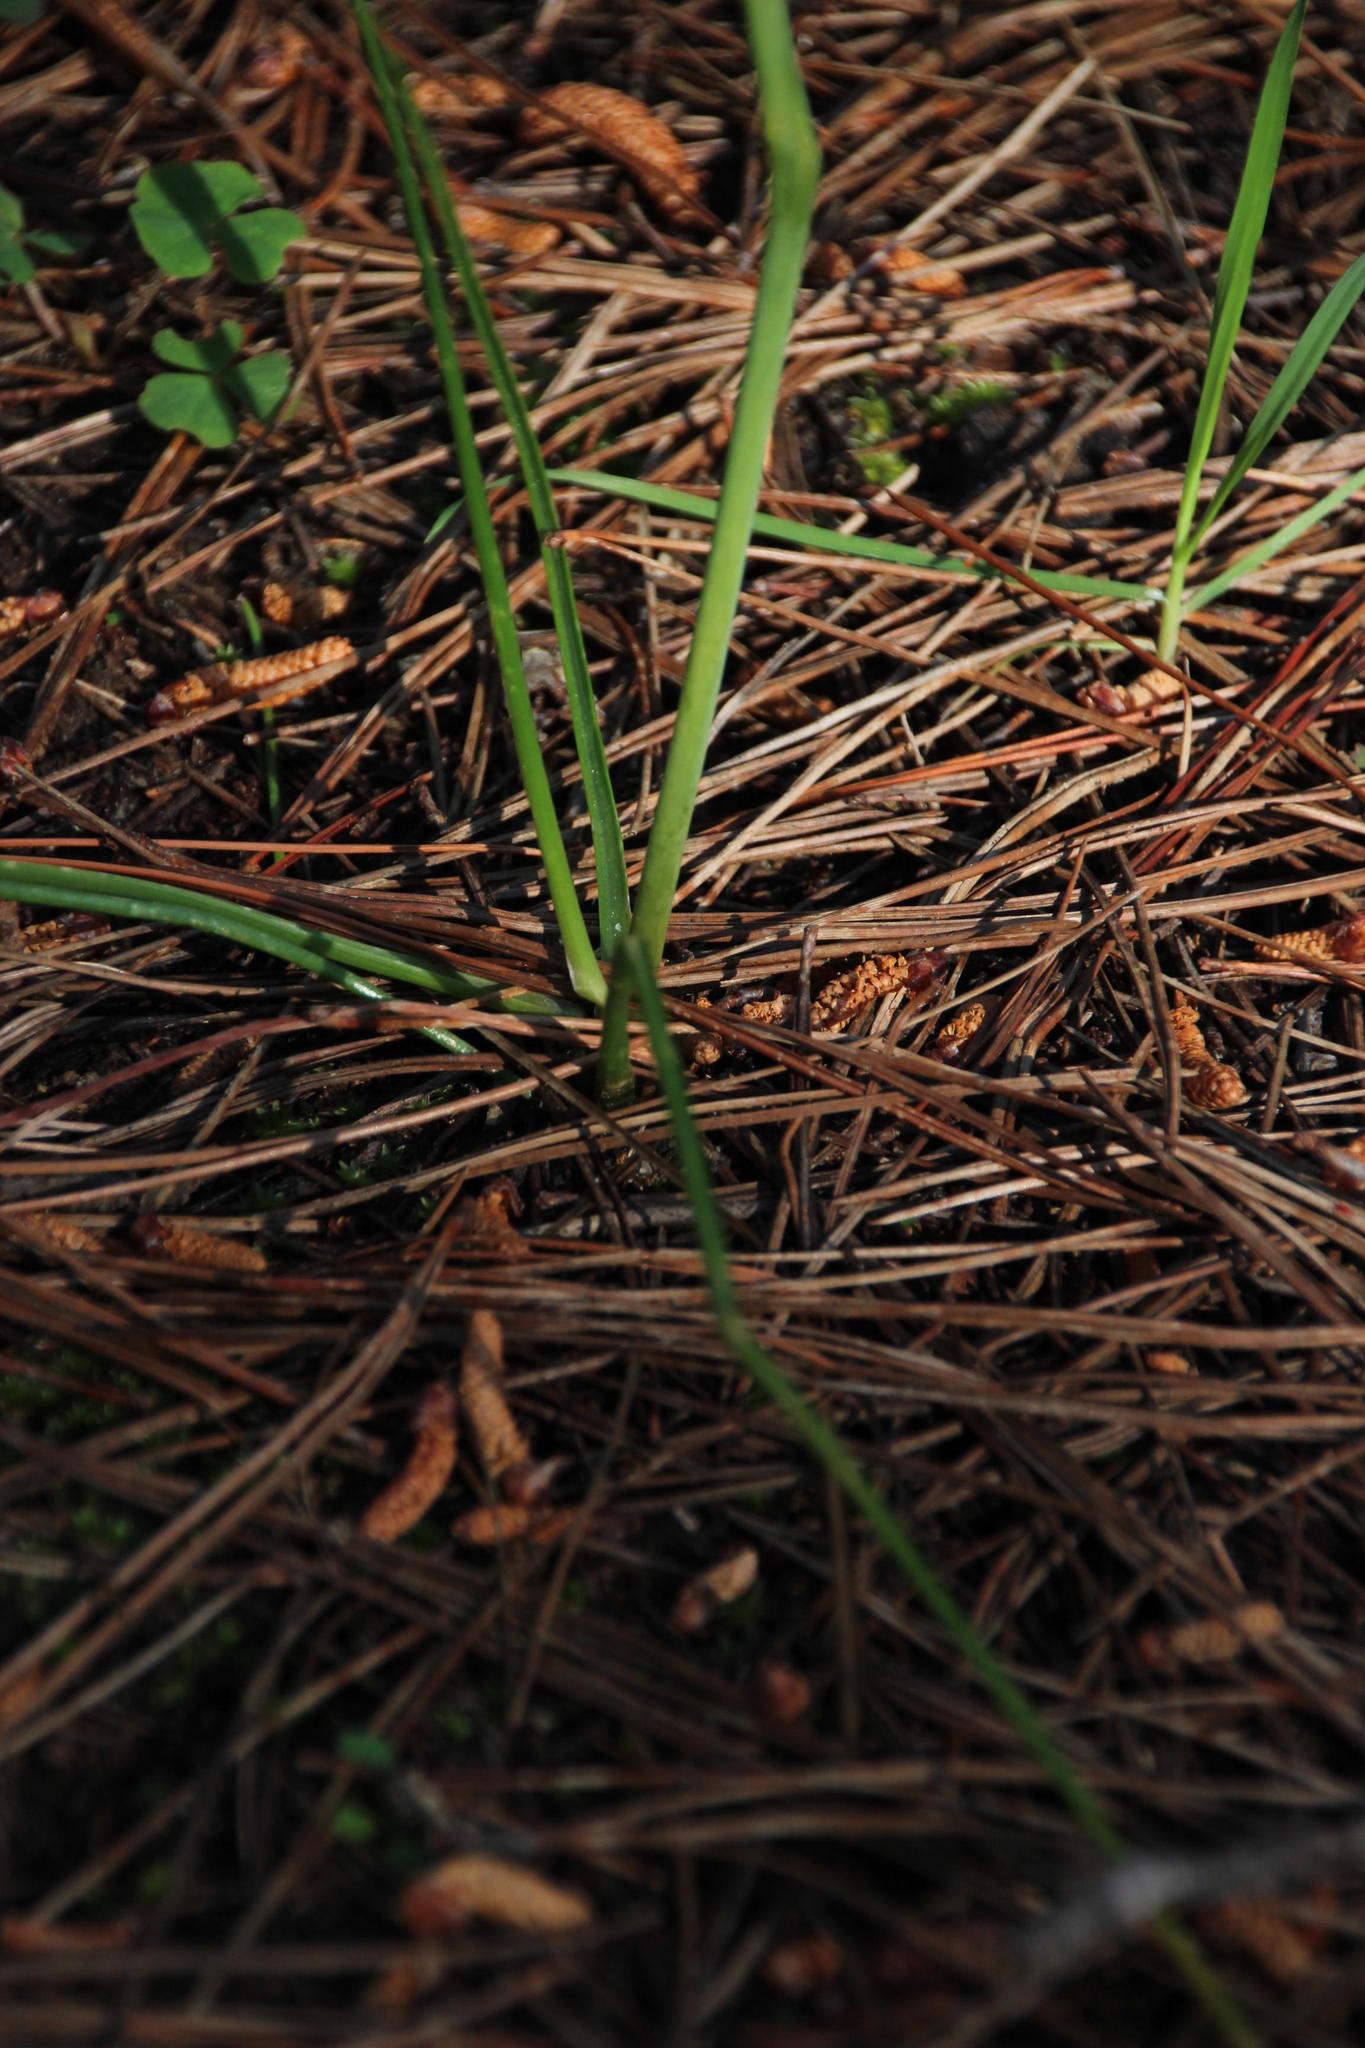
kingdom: Plantae
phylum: Tracheophyta
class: Liliopsida
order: Asparagales
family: Asparagaceae
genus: Albuca
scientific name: Albuca cooperi
